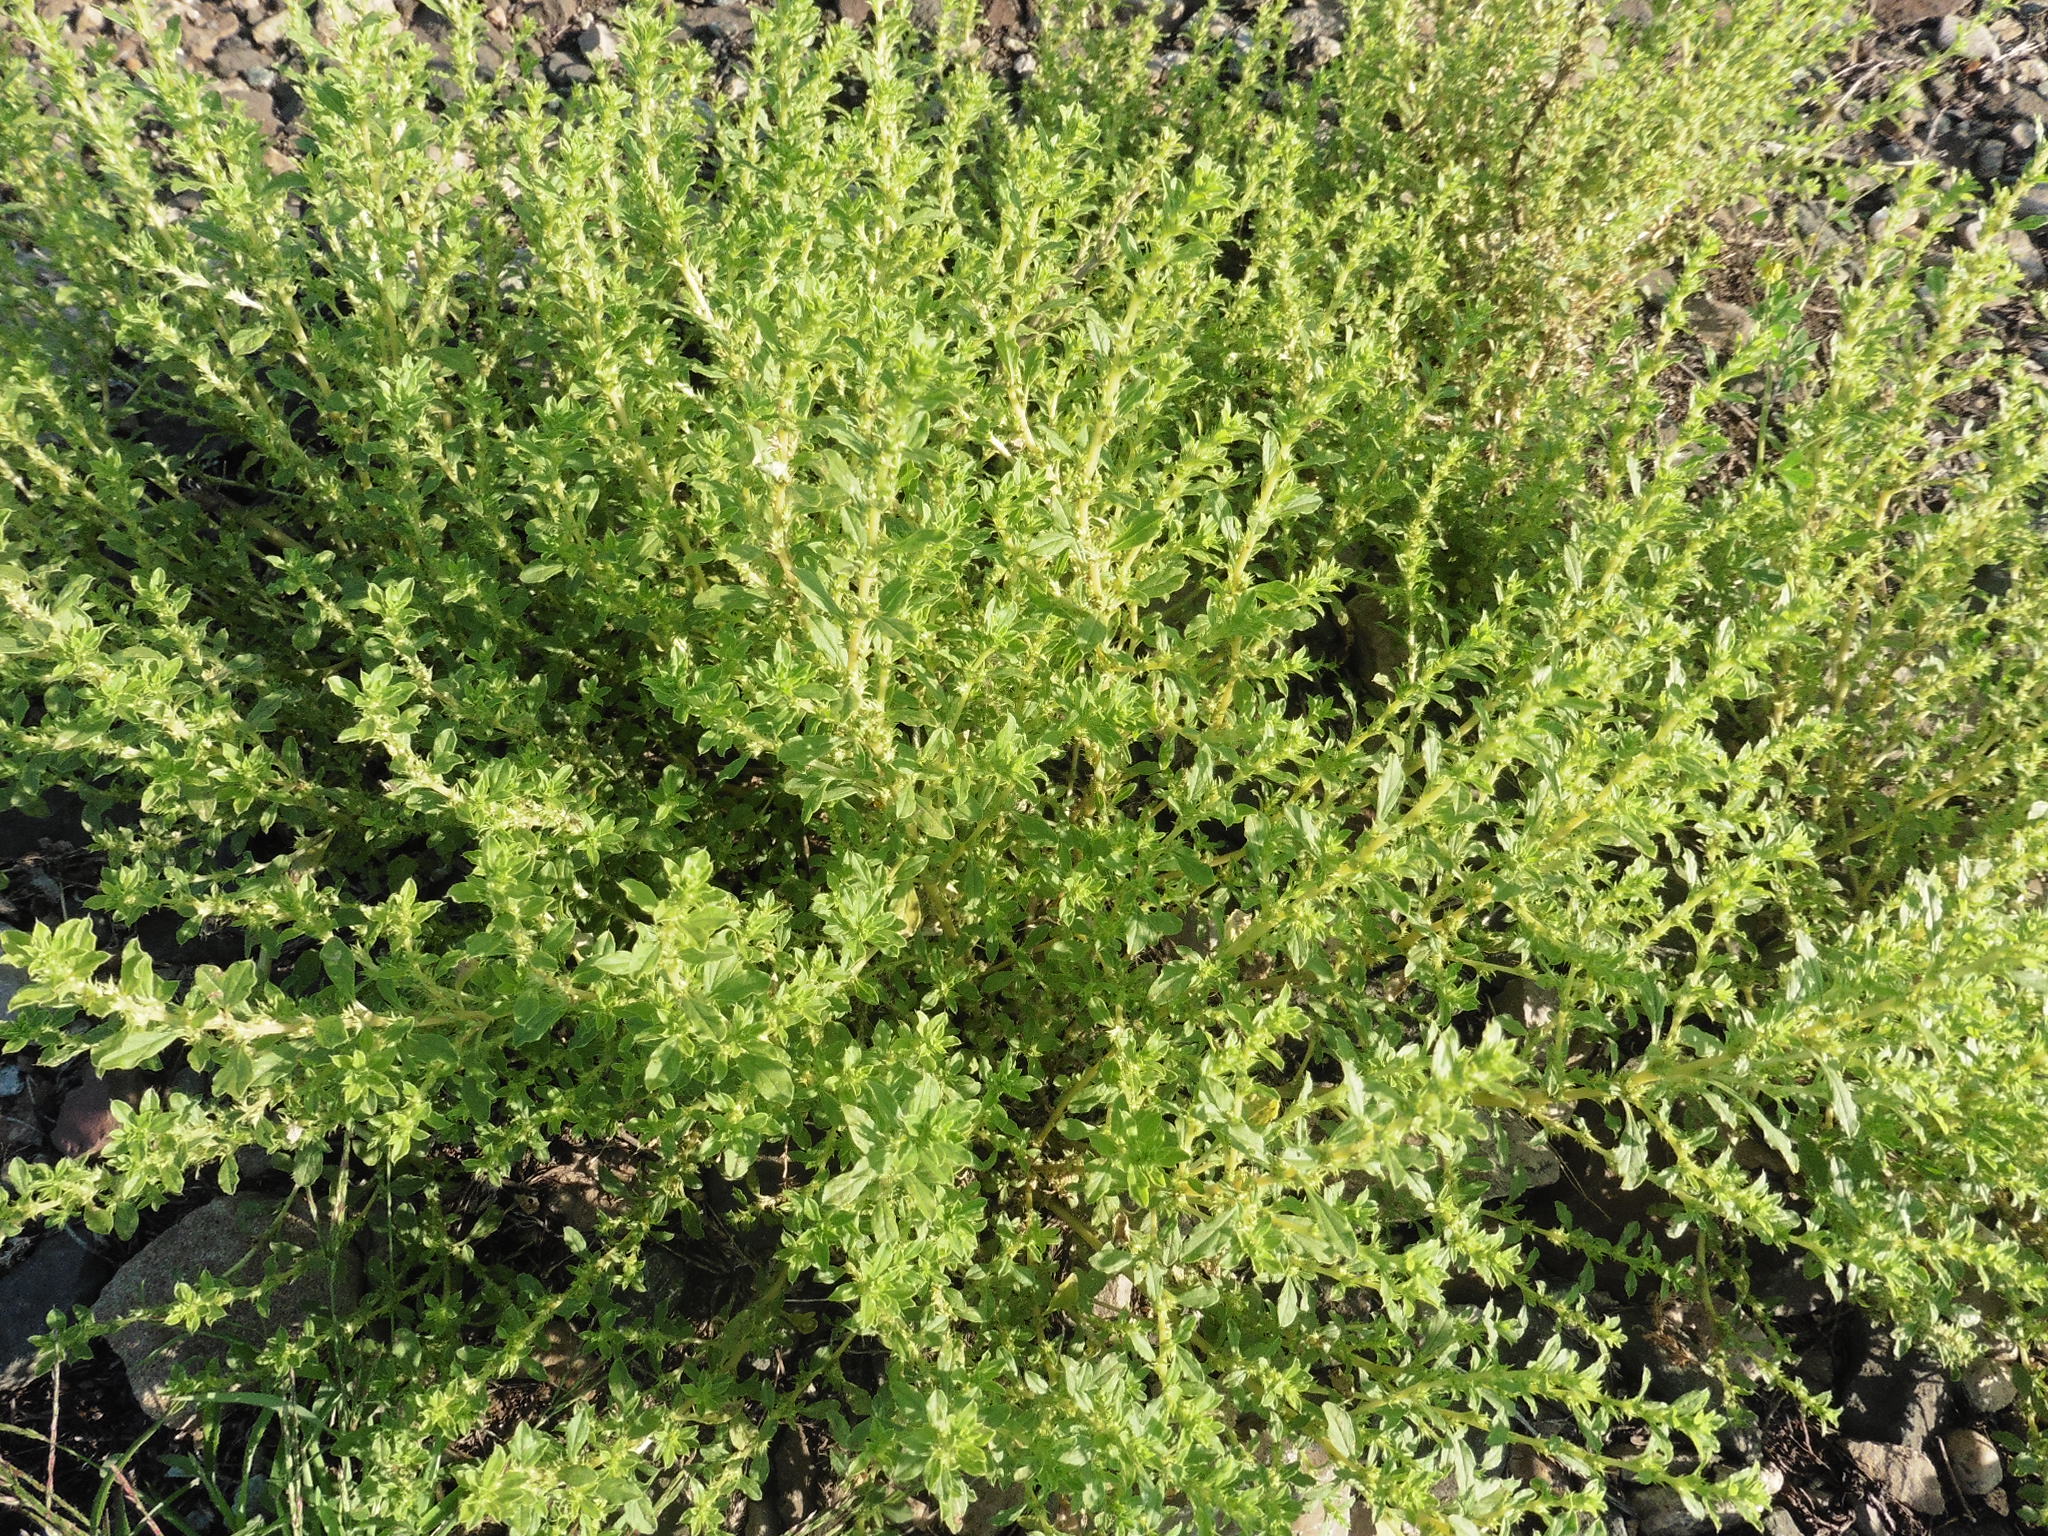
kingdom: Plantae
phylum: Tracheophyta
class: Magnoliopsida
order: Caryophyllales
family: Amaranthaceae
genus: Amaranthus
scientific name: Amaranthus albus
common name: White pigweed
